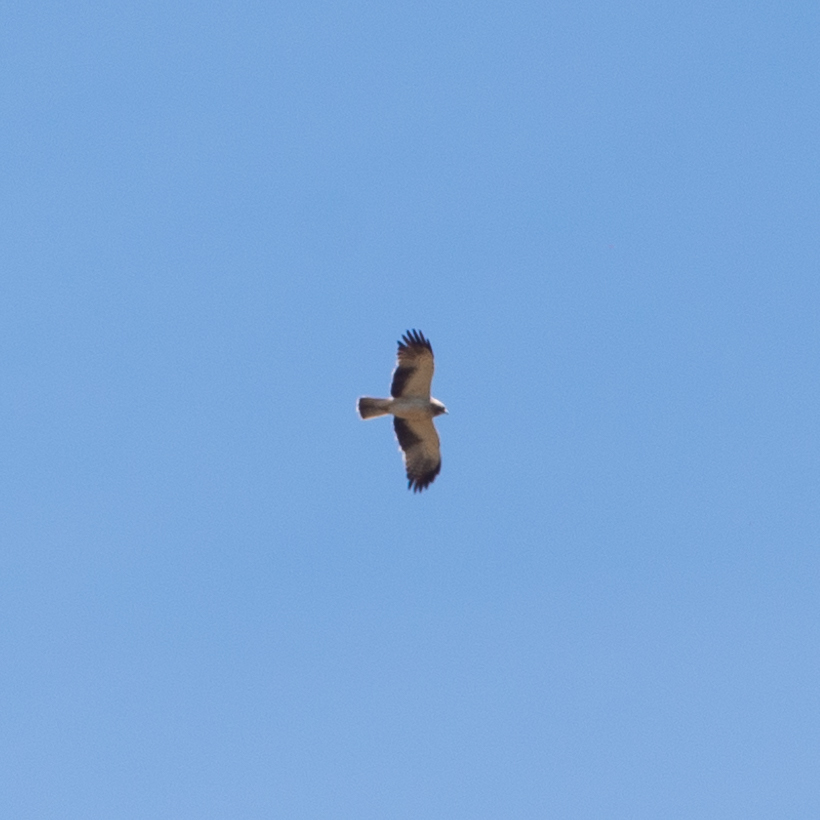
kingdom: Animalia
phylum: Chordata
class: Aves
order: Accipitriformes
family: Accipitridae
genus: Hieraaetus
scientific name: Hieraaetus pennatus
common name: Booted eagle
